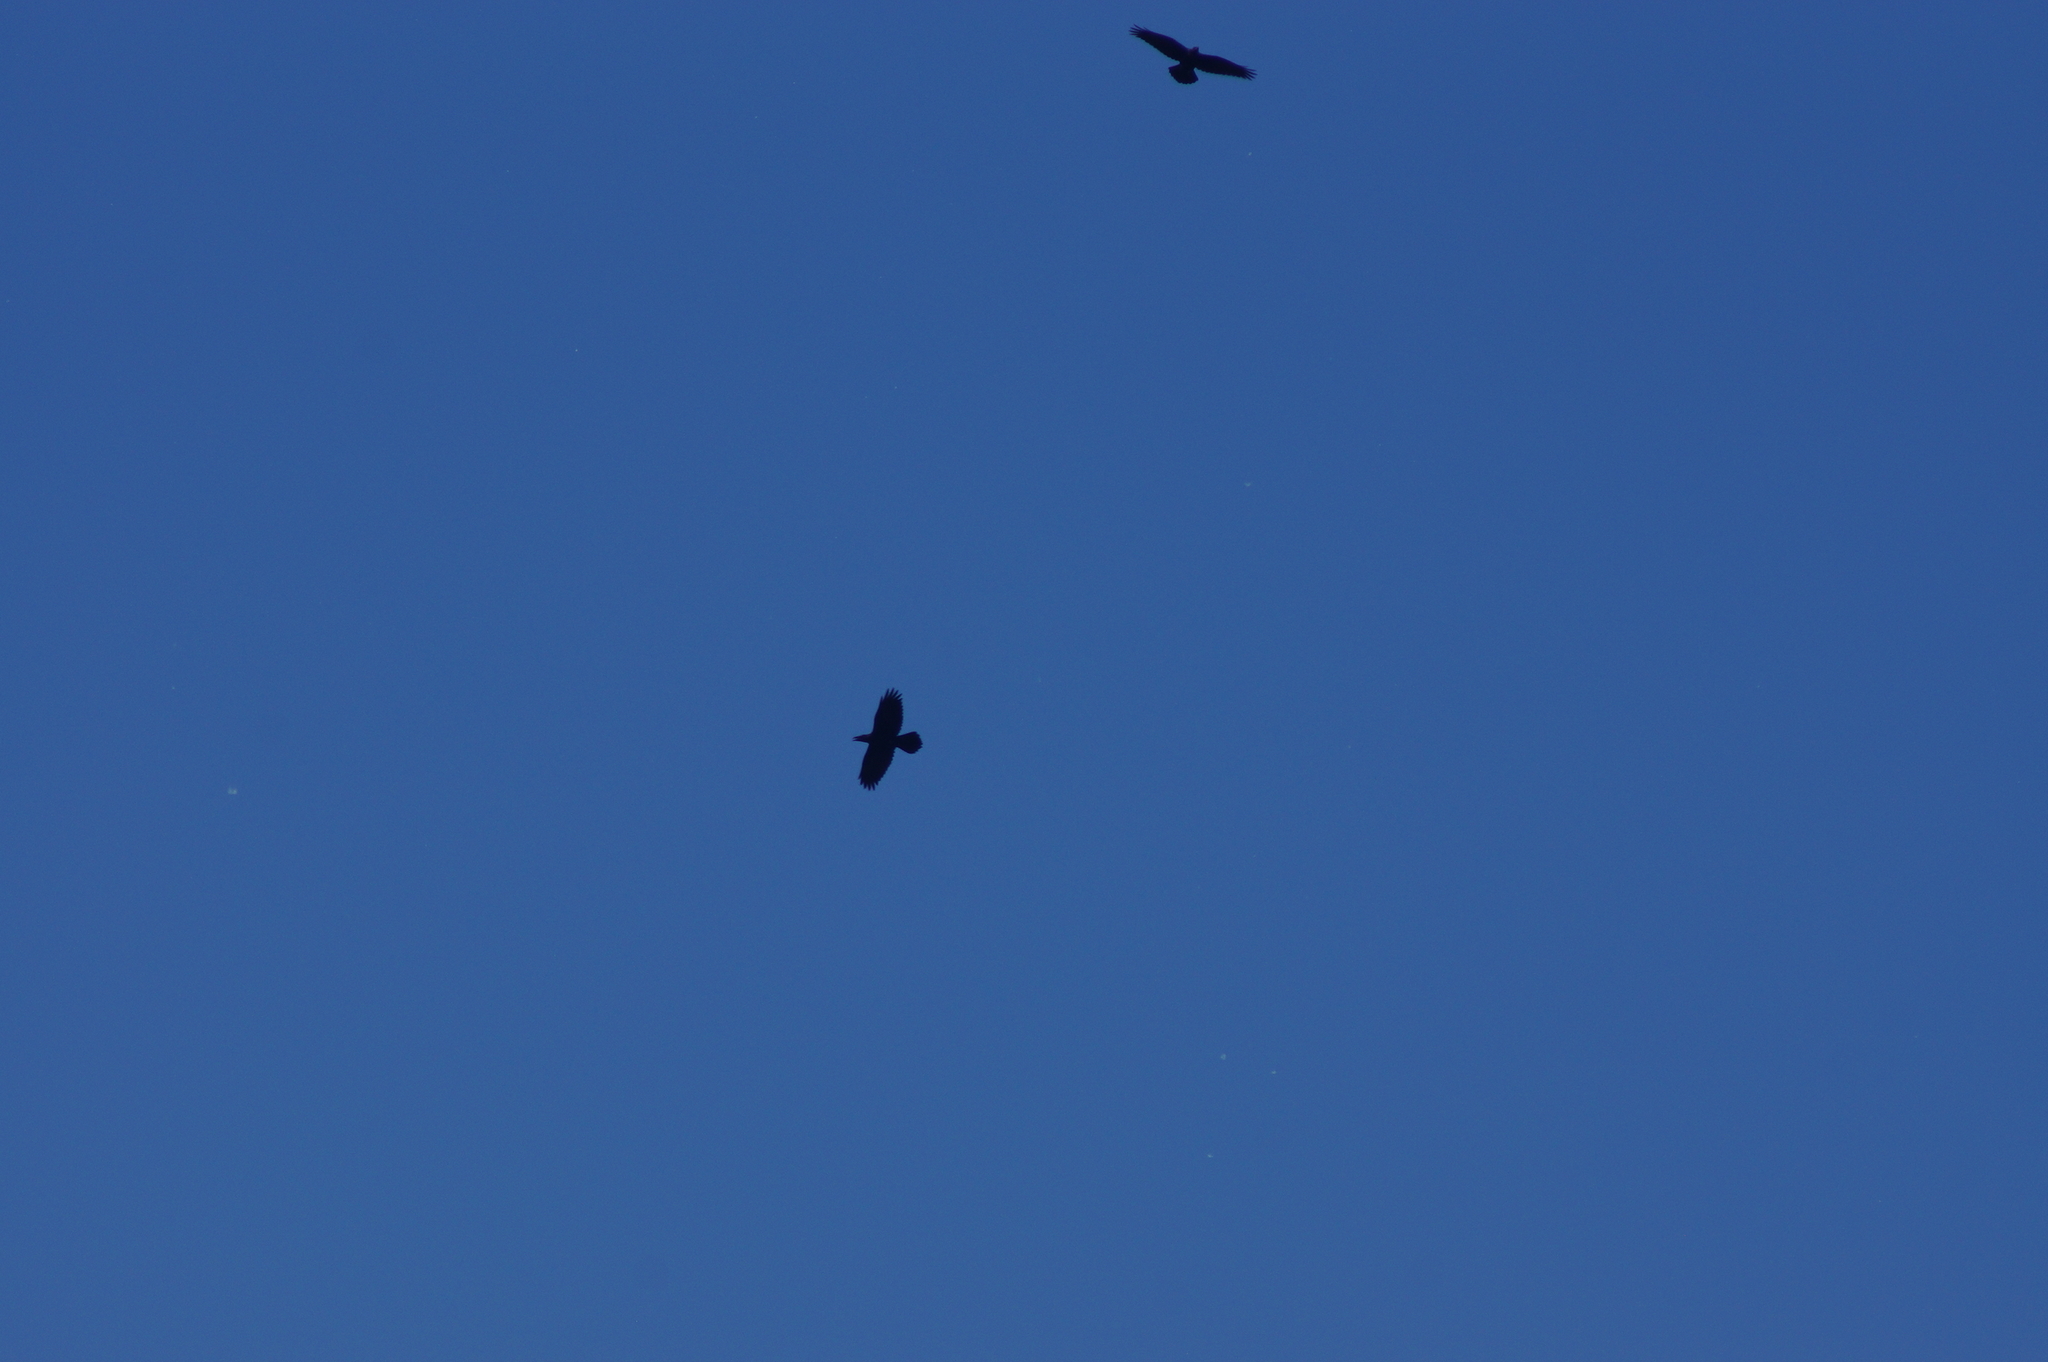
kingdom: Animalia
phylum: Chordata
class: Aves
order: Passeriformes
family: Corvidae
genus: Corvus
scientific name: Corvus corax
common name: Common raven
